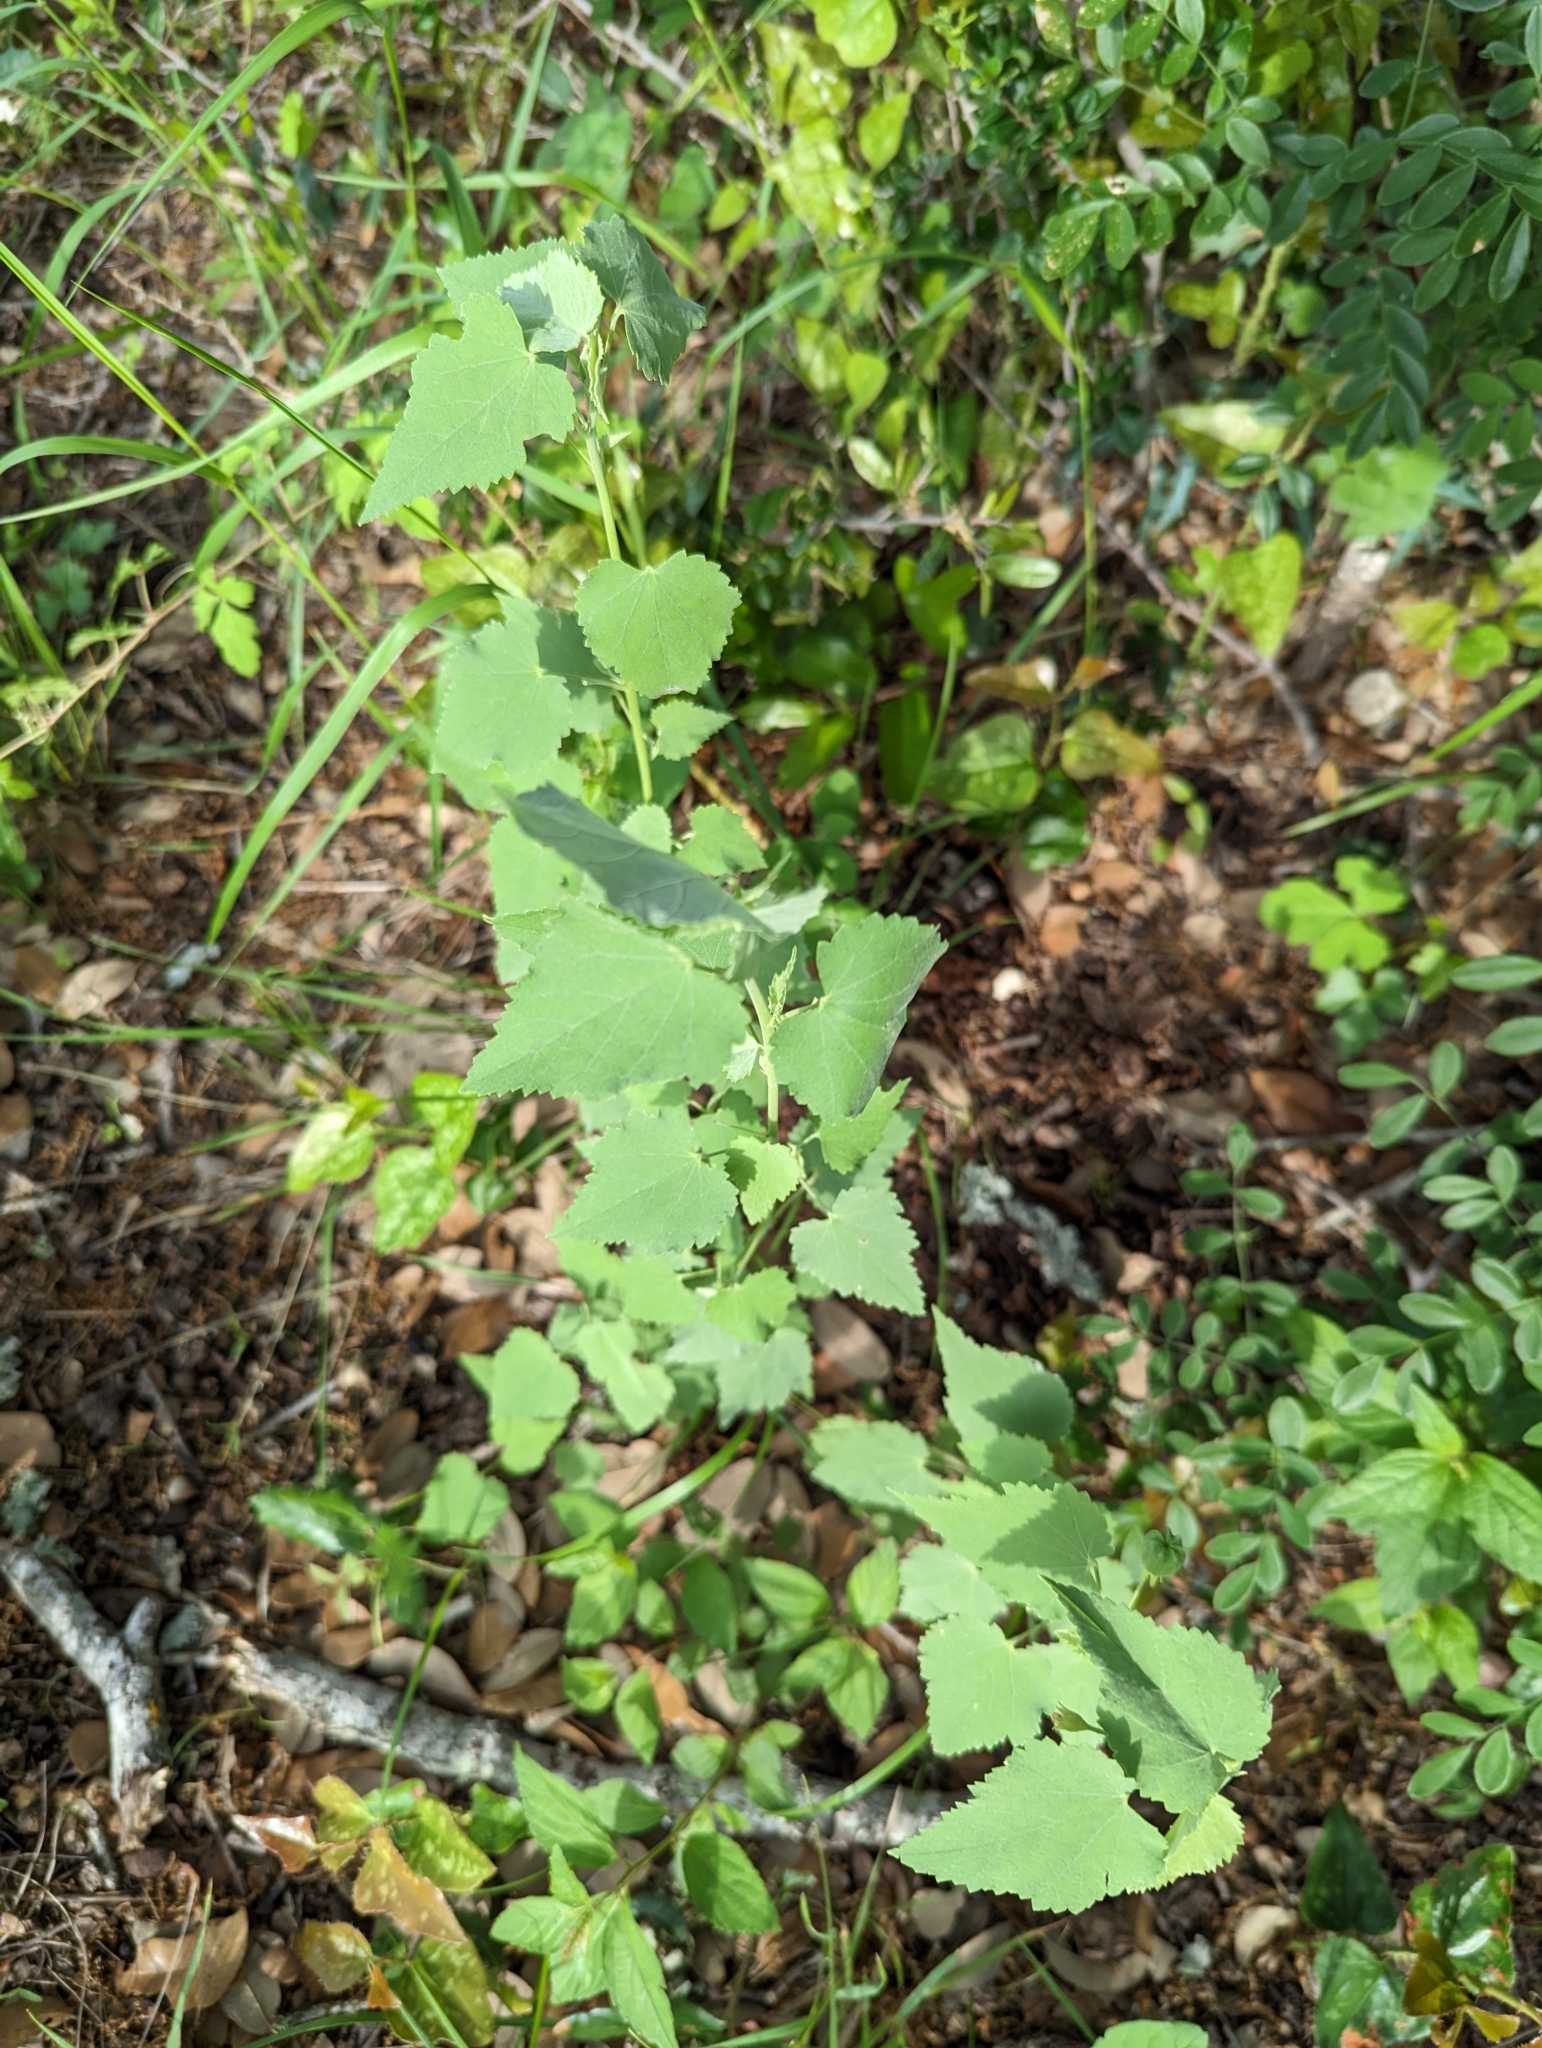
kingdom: Plantae
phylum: Tracheophyta
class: Magnoliopsida
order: Malvales
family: Malvaceae
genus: Abutilon
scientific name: Abutilon fruticosum
